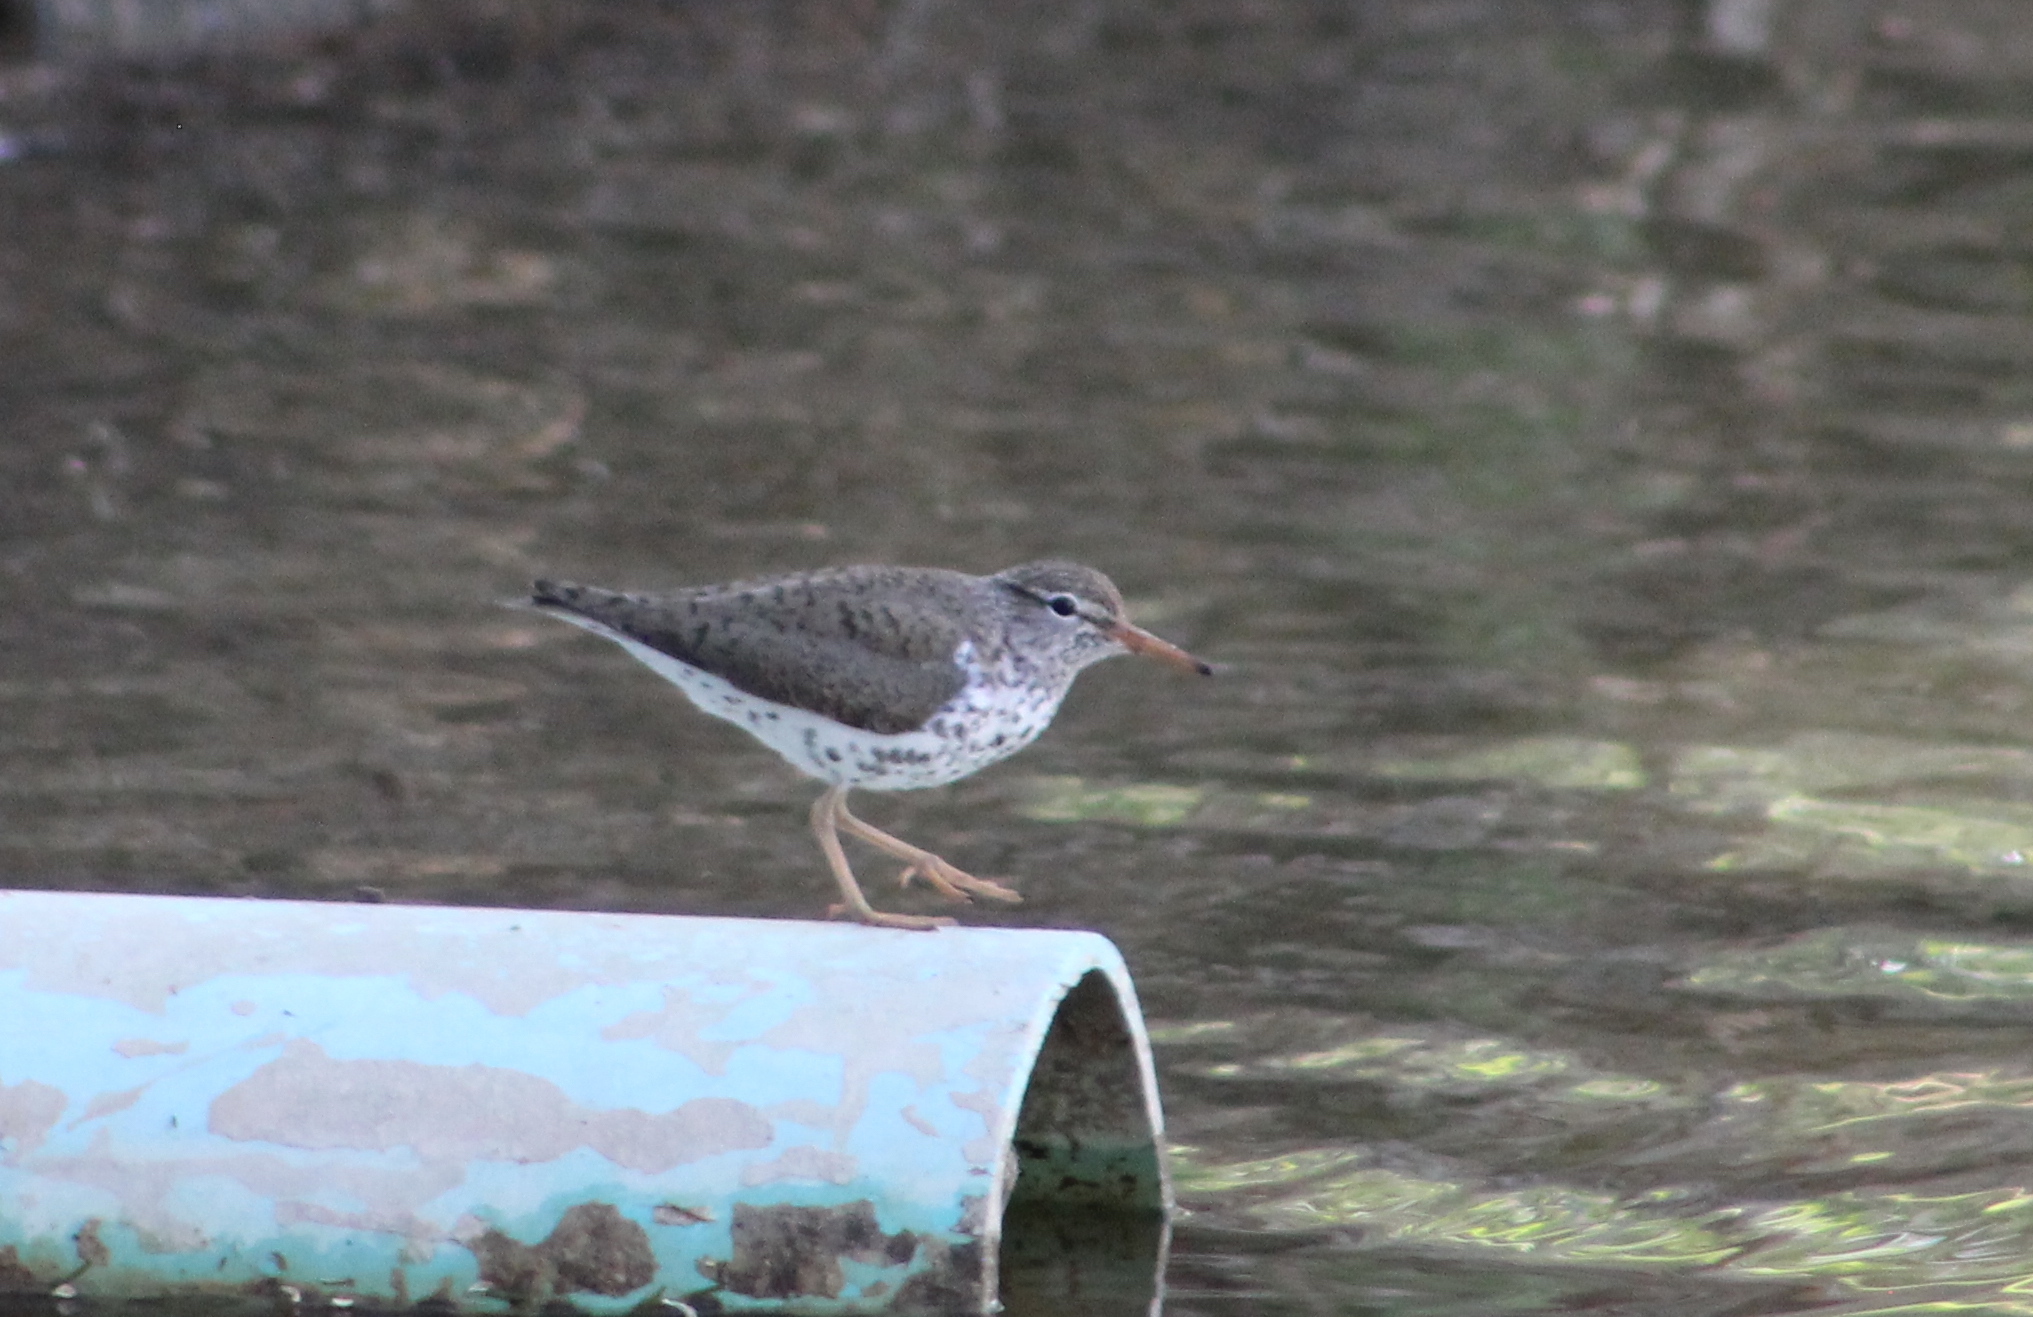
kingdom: Animalia
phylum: Chordata
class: Aves
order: Charadriiformes
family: Scolopacidae
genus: Actitis
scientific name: Actitis macularius
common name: Spotted sandpiper
